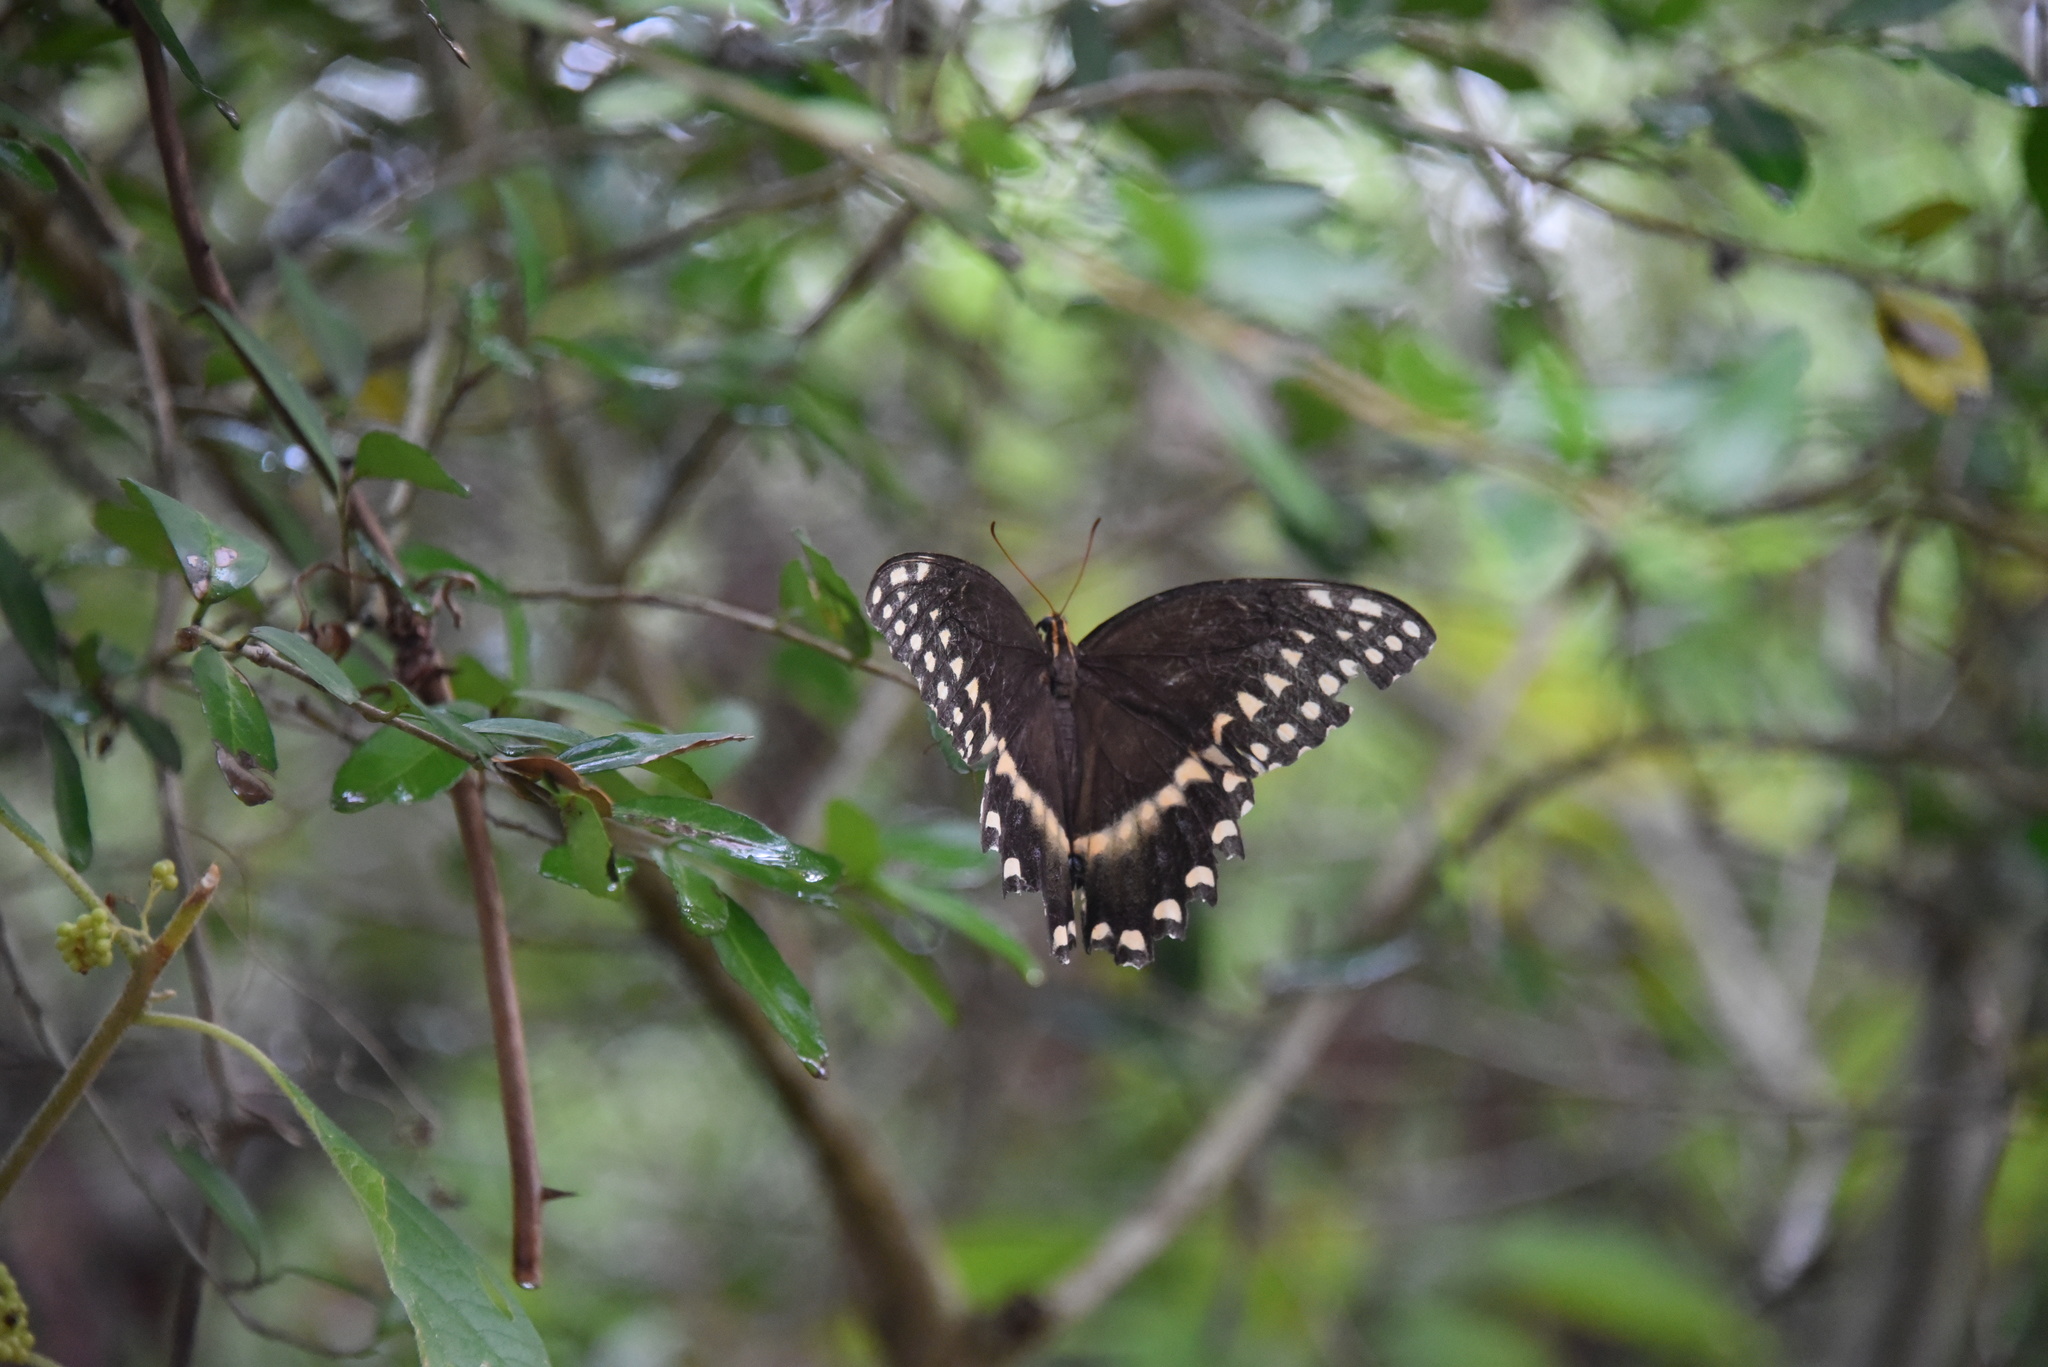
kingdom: Animalia
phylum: Arthropoda
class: Insecta
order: Lepidoptera
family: Papilionidae
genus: Papilio
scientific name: Papilio palamedes
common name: Palamedes swallowtail
